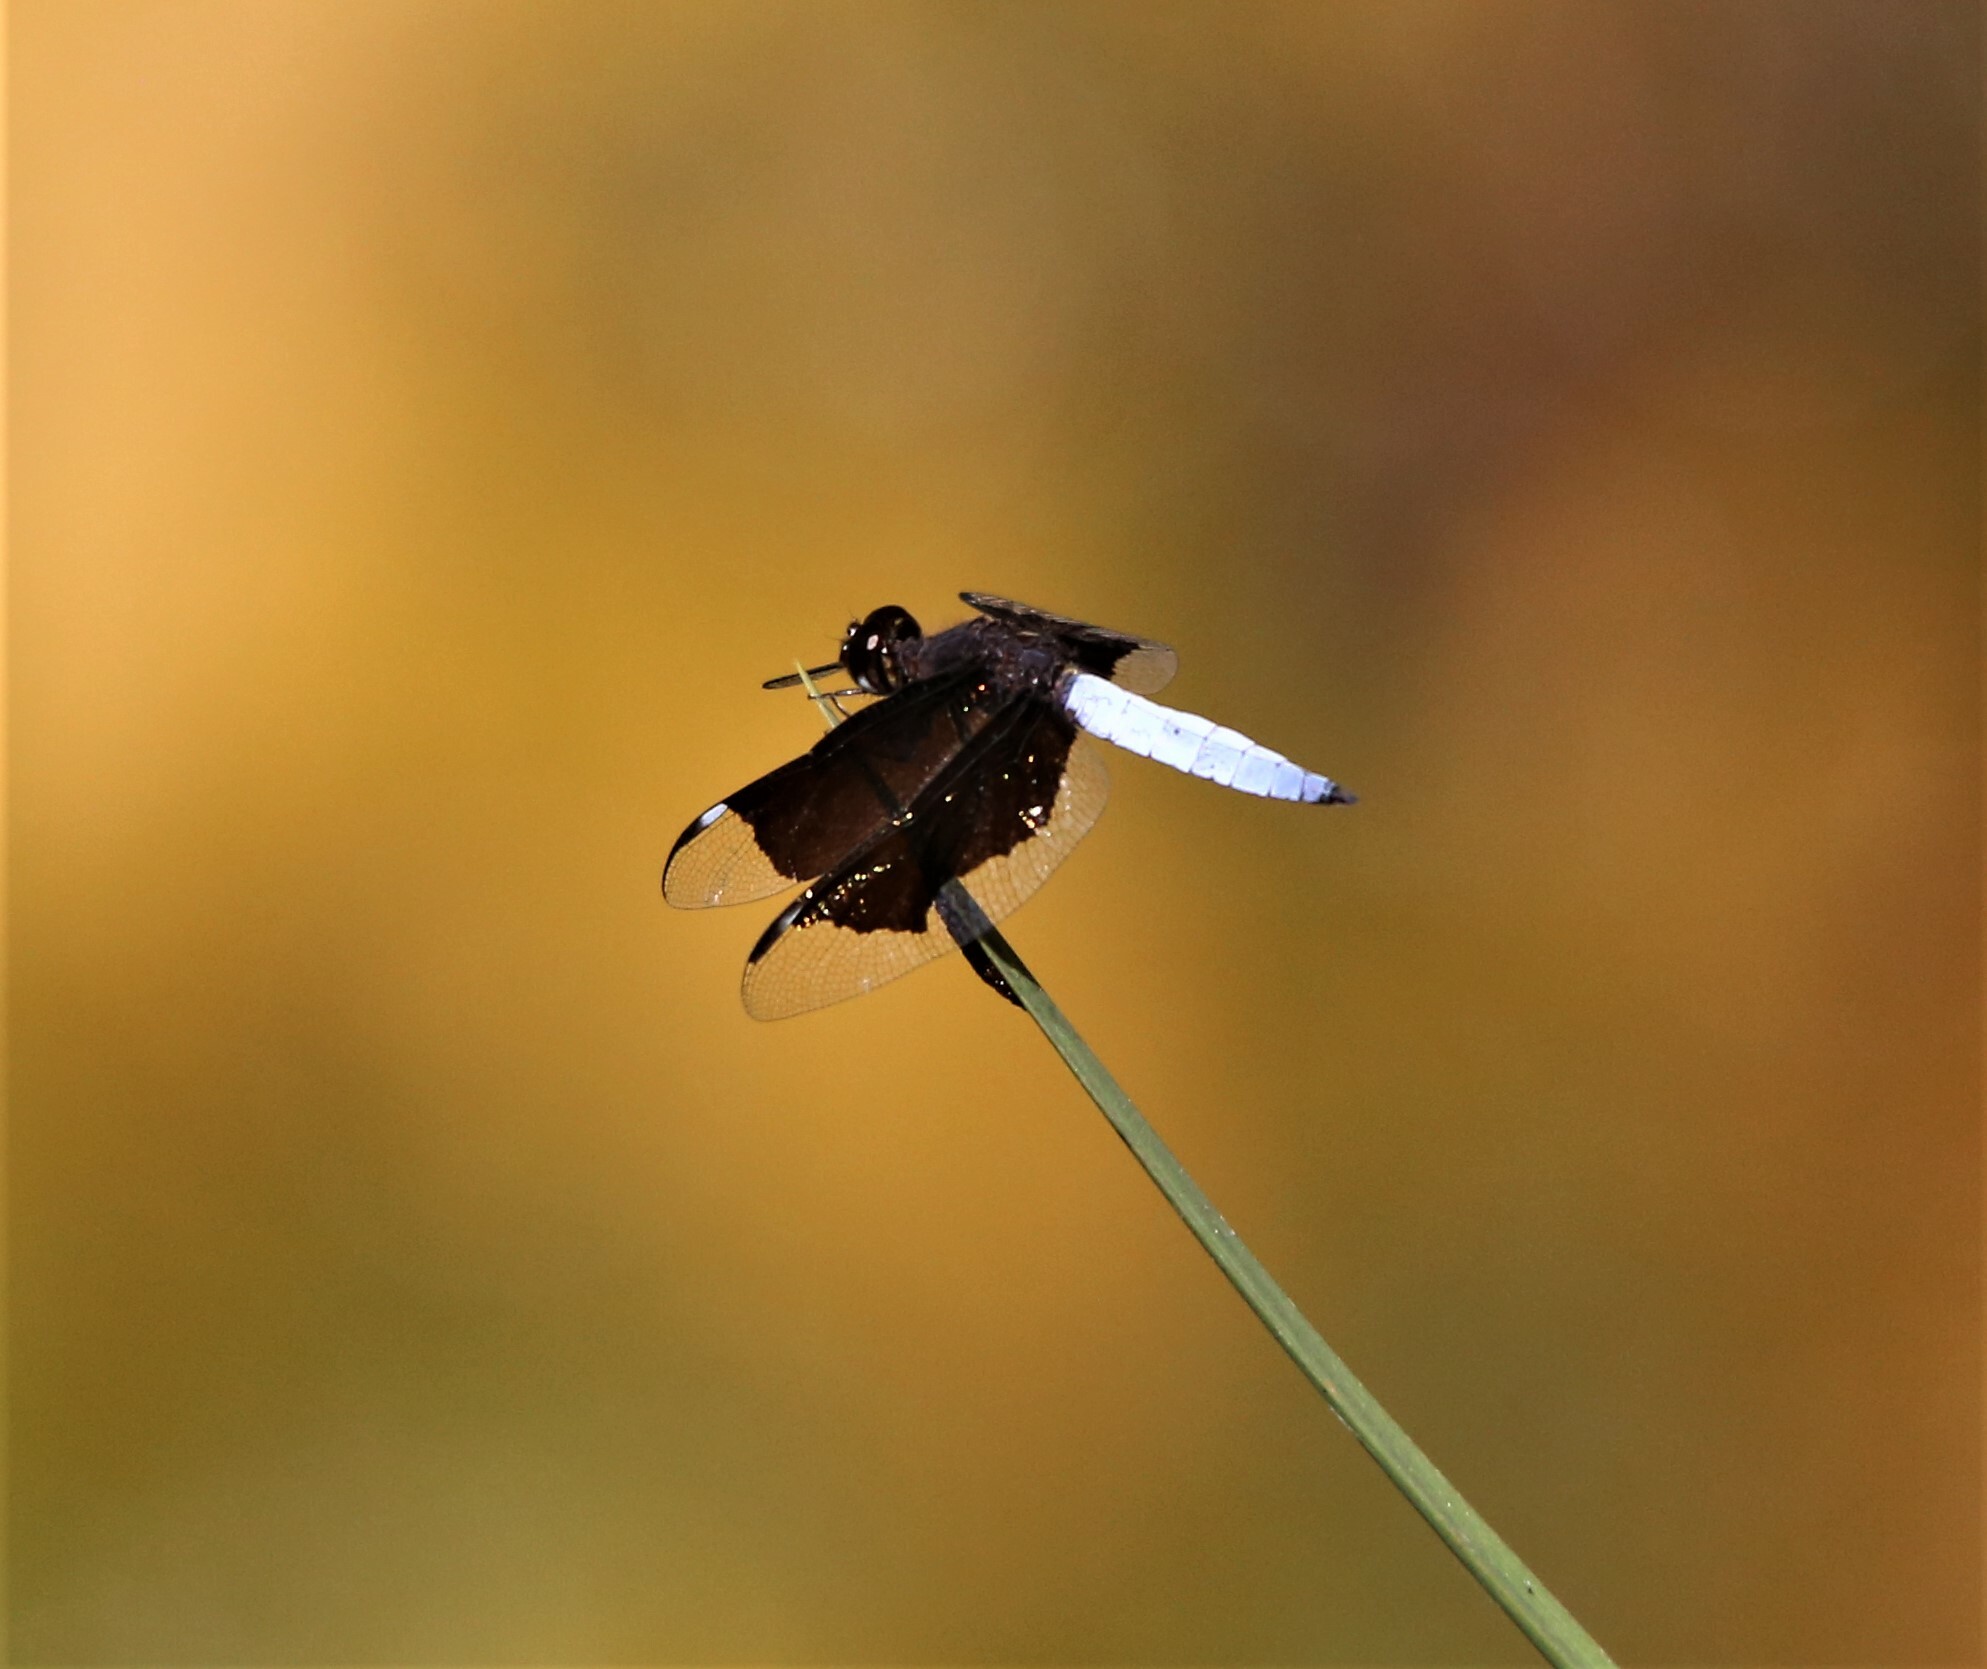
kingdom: Animalia
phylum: Arthropoda
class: Insecta
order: Odonata
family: Libellulidae
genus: Palpopleura
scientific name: Palpopleura lucia
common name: Lucia widow
